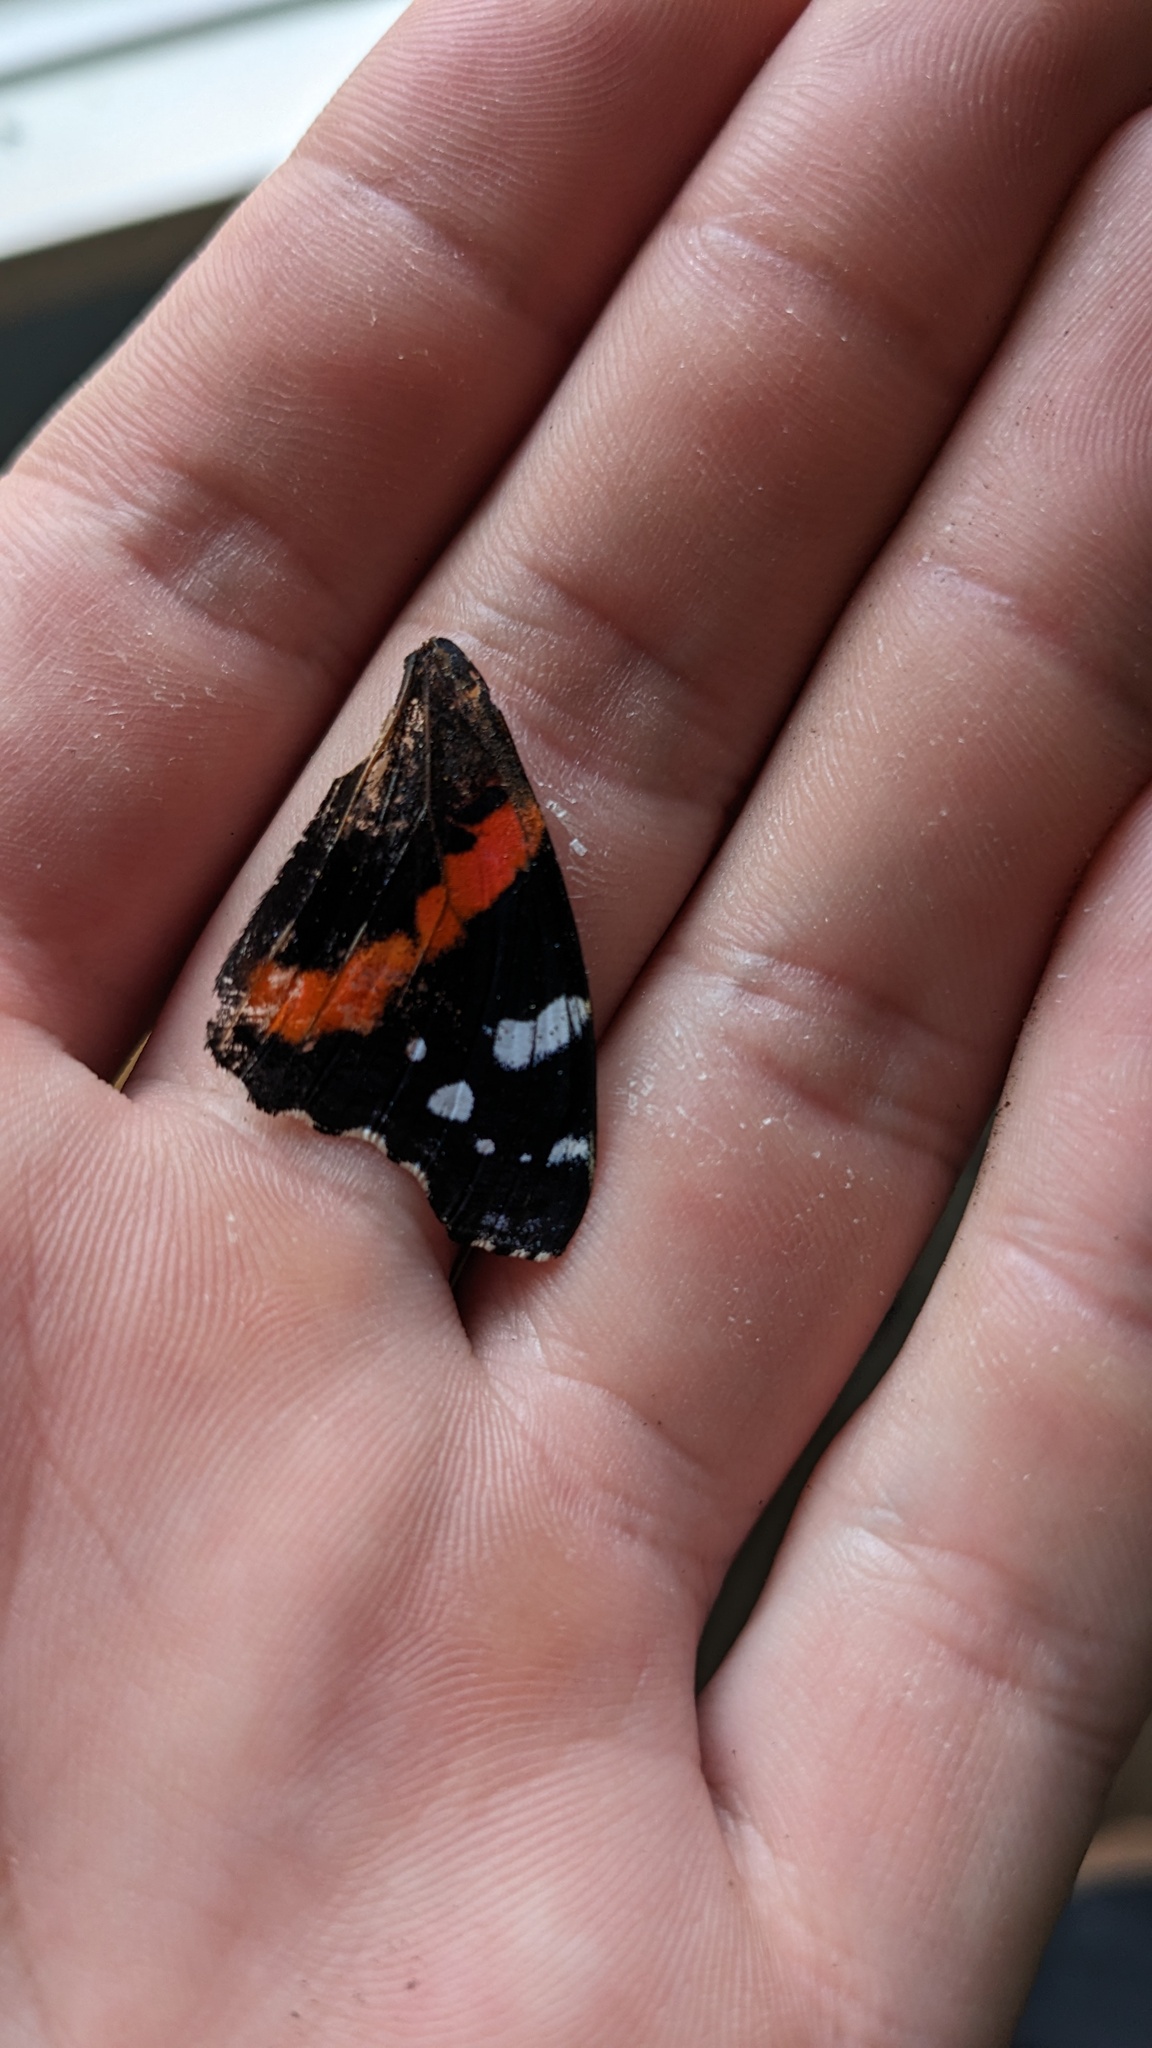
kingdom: Animalia
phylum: Arthropoda
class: Insecta
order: Lepidoptera
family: Nymphalidae
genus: Vanessa
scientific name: Vanessa atalanta
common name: Red admiral
